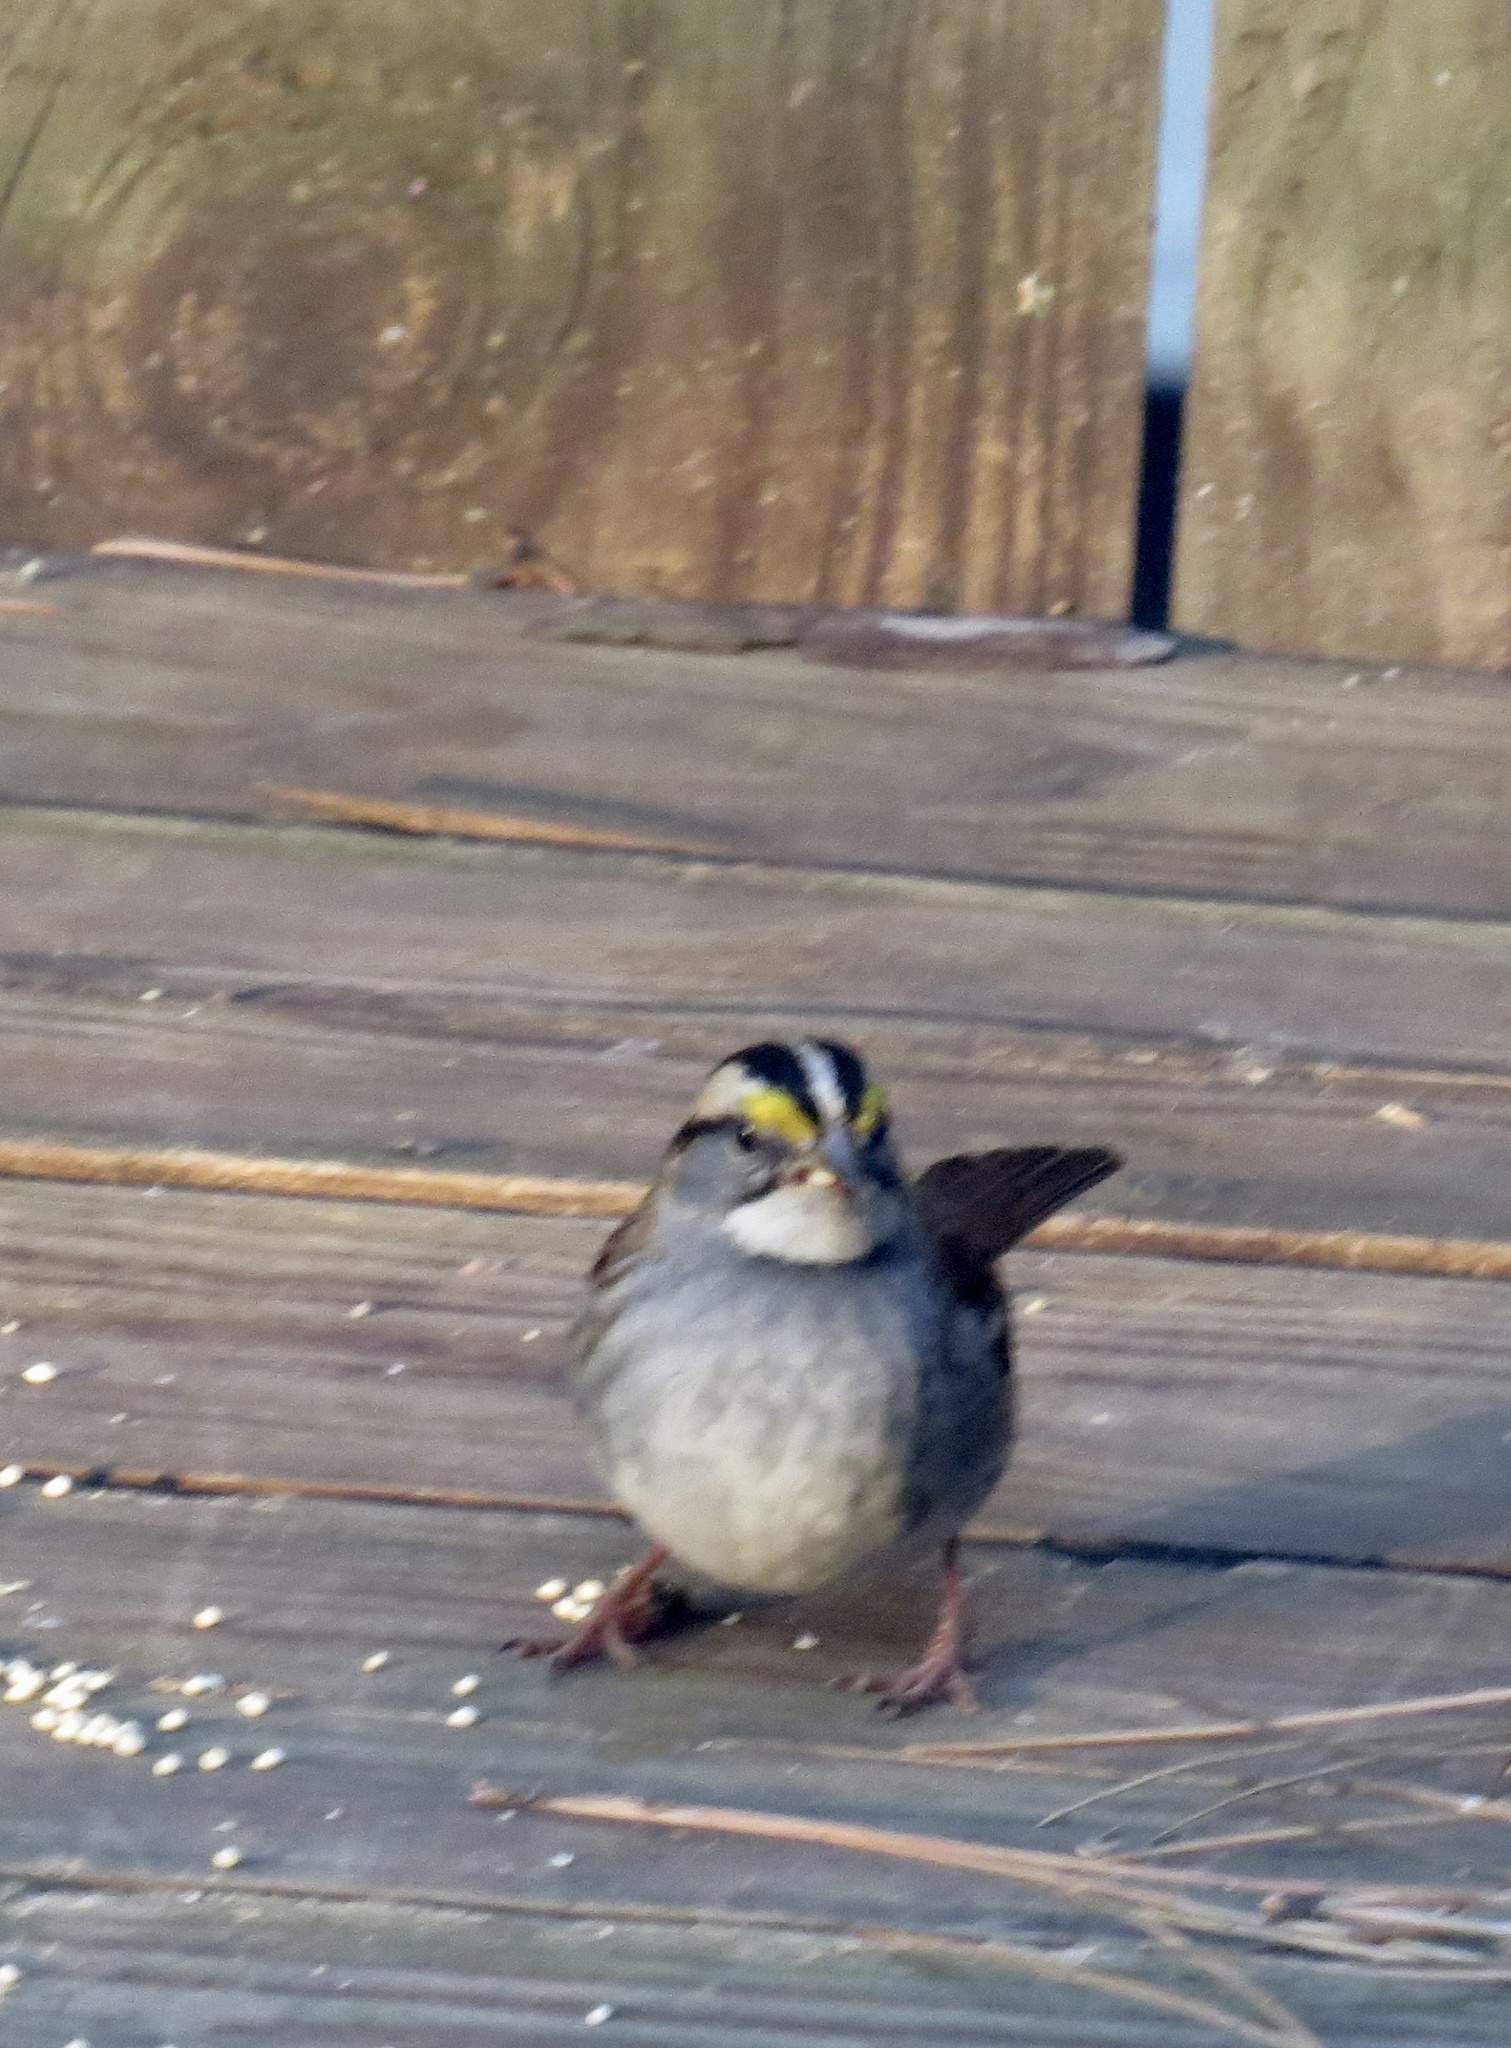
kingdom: Animalia
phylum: Chordata
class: Aves
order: Passeriformes
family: Passerellidae
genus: Zonotrichia
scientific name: Zonotrichia albicollis
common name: White-throated sparrow
